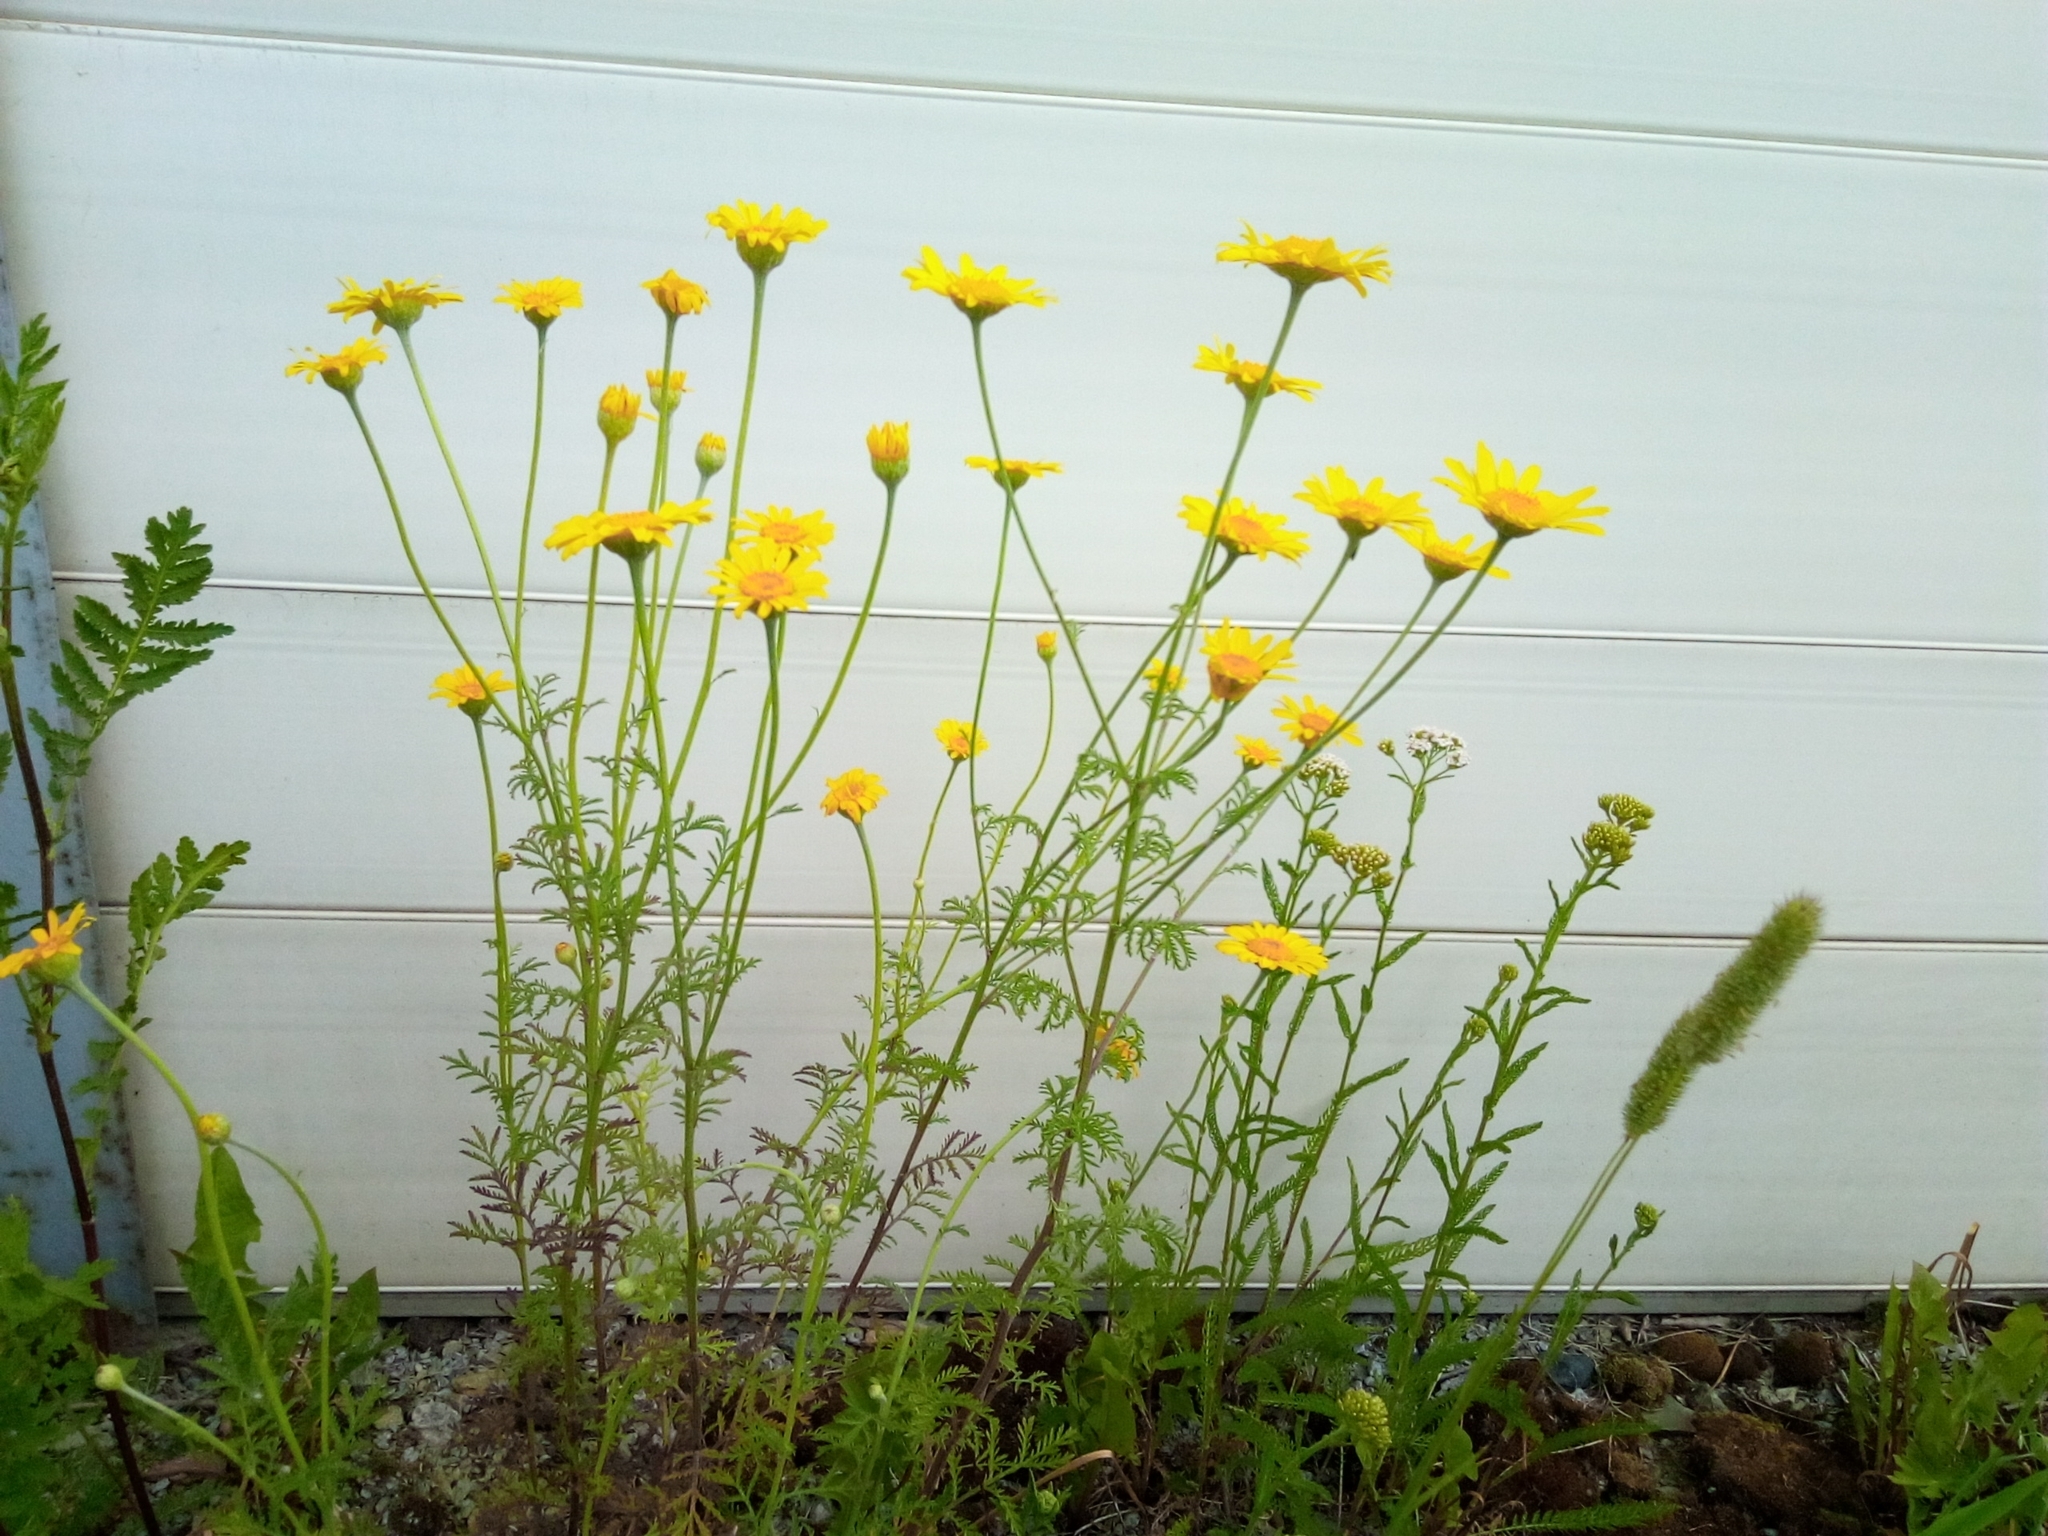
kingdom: Plantae
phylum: Tracheophyta
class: Magnoliopsida
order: Asterales
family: Asteraceae
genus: Cota
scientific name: Cota tinctoria
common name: Golden chamomile
